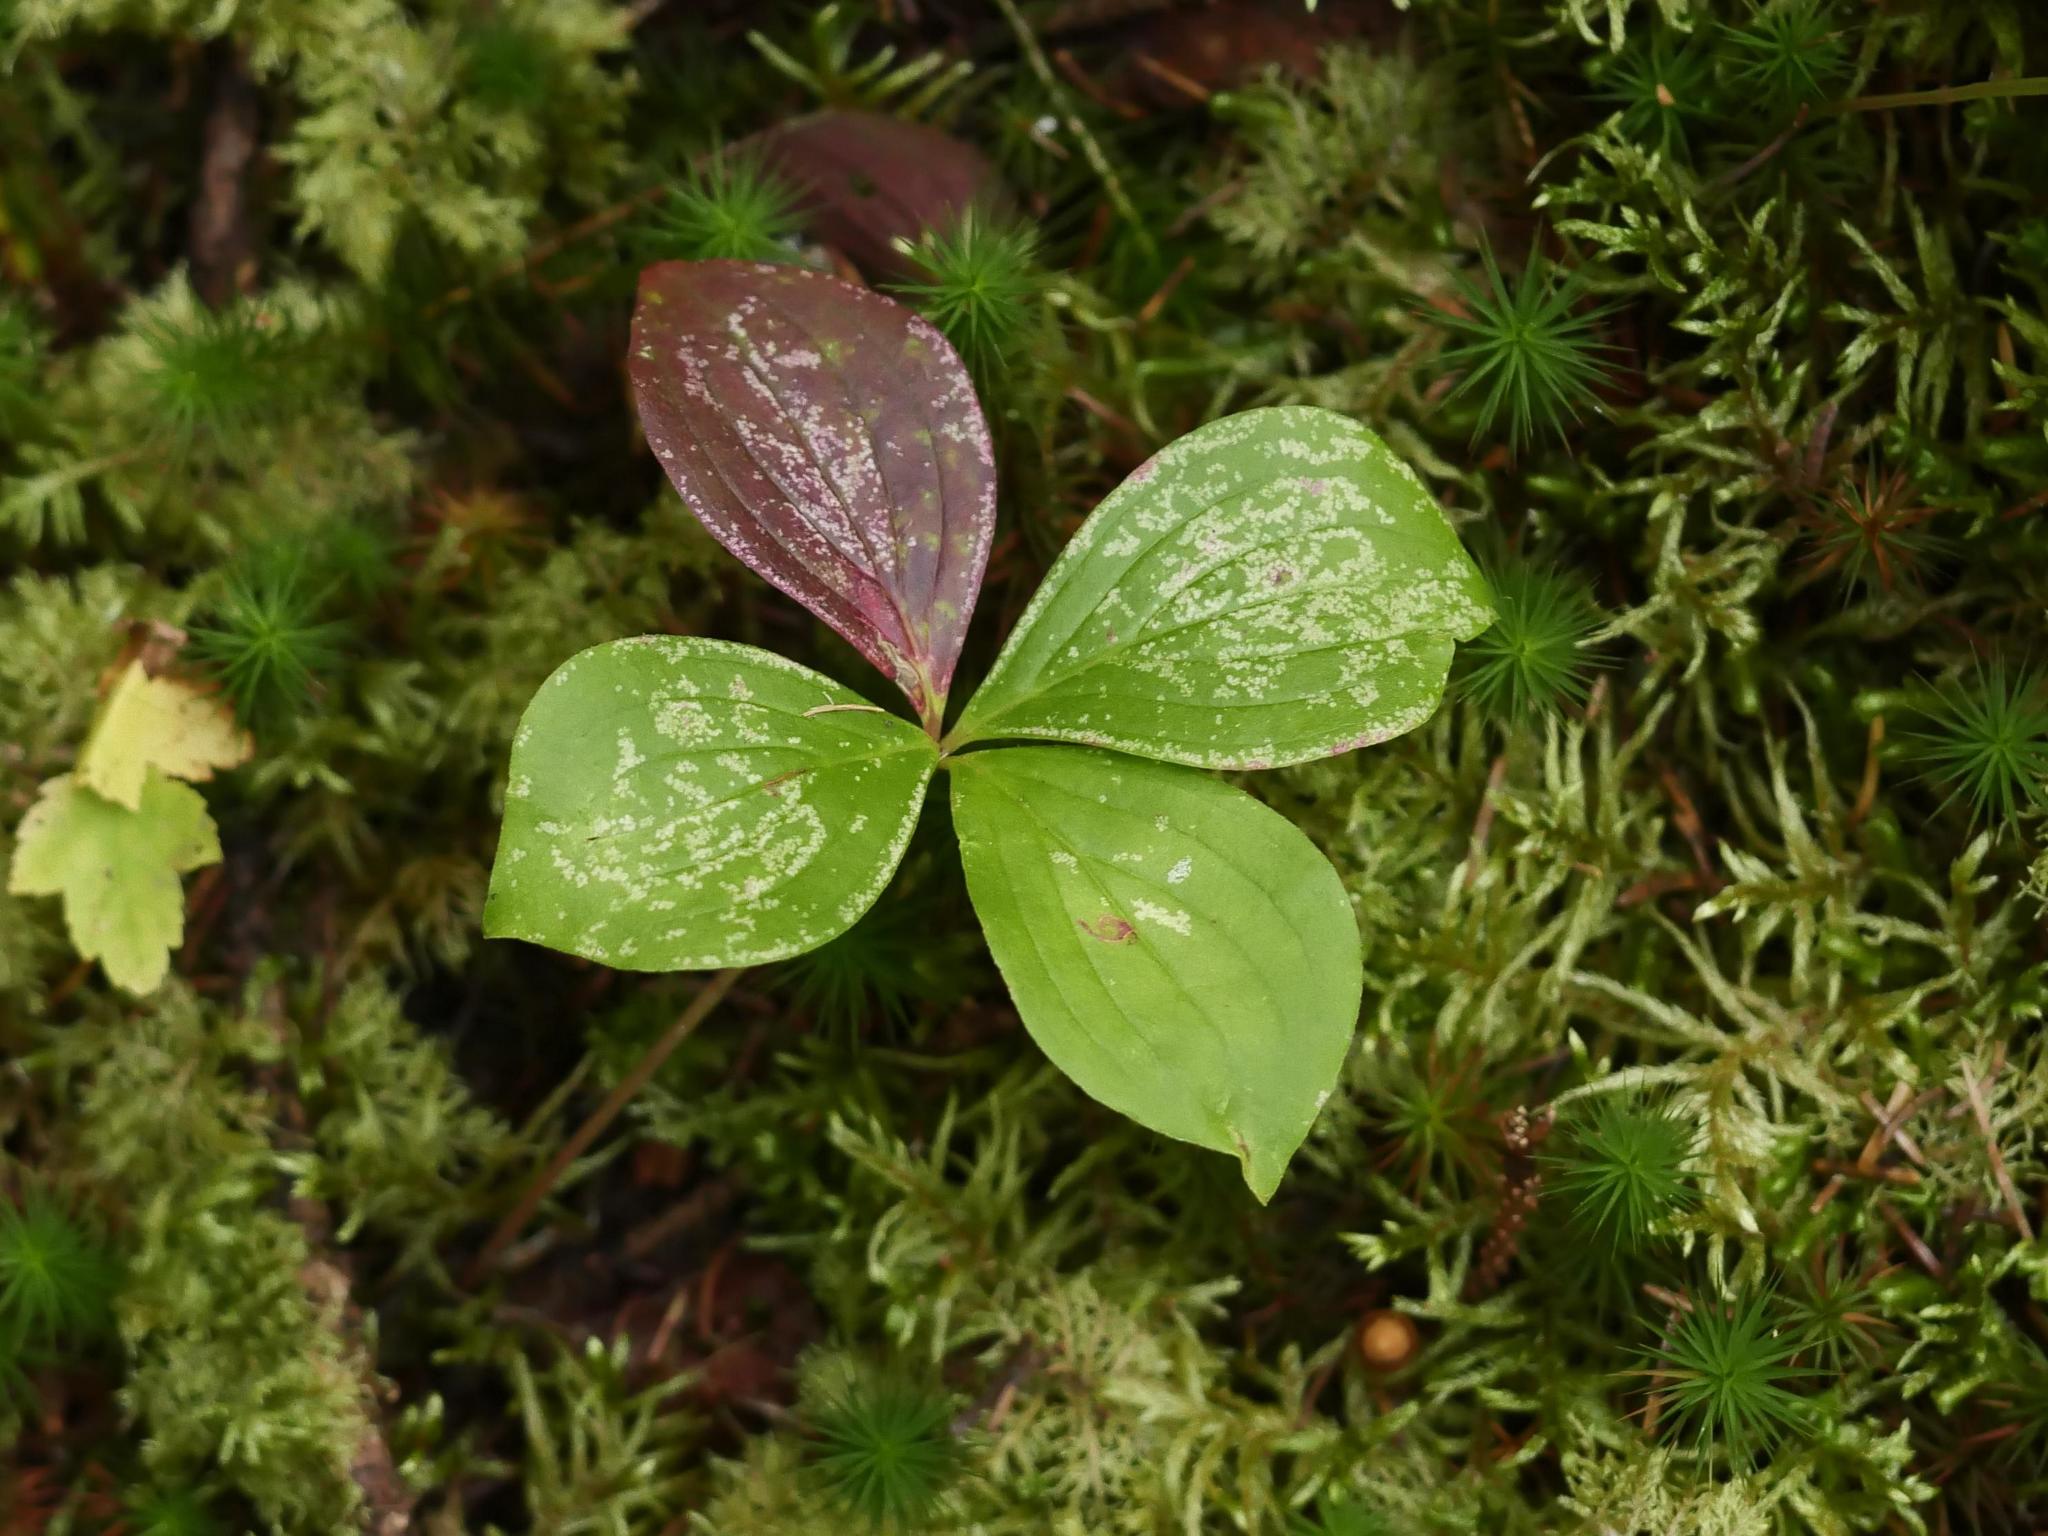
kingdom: Plantae
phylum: Tracheophyta
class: Magnoliopsida
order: Cornales
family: Cornaceae
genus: Cornus
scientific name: Cornus canadensis
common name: Creeping dogwood
